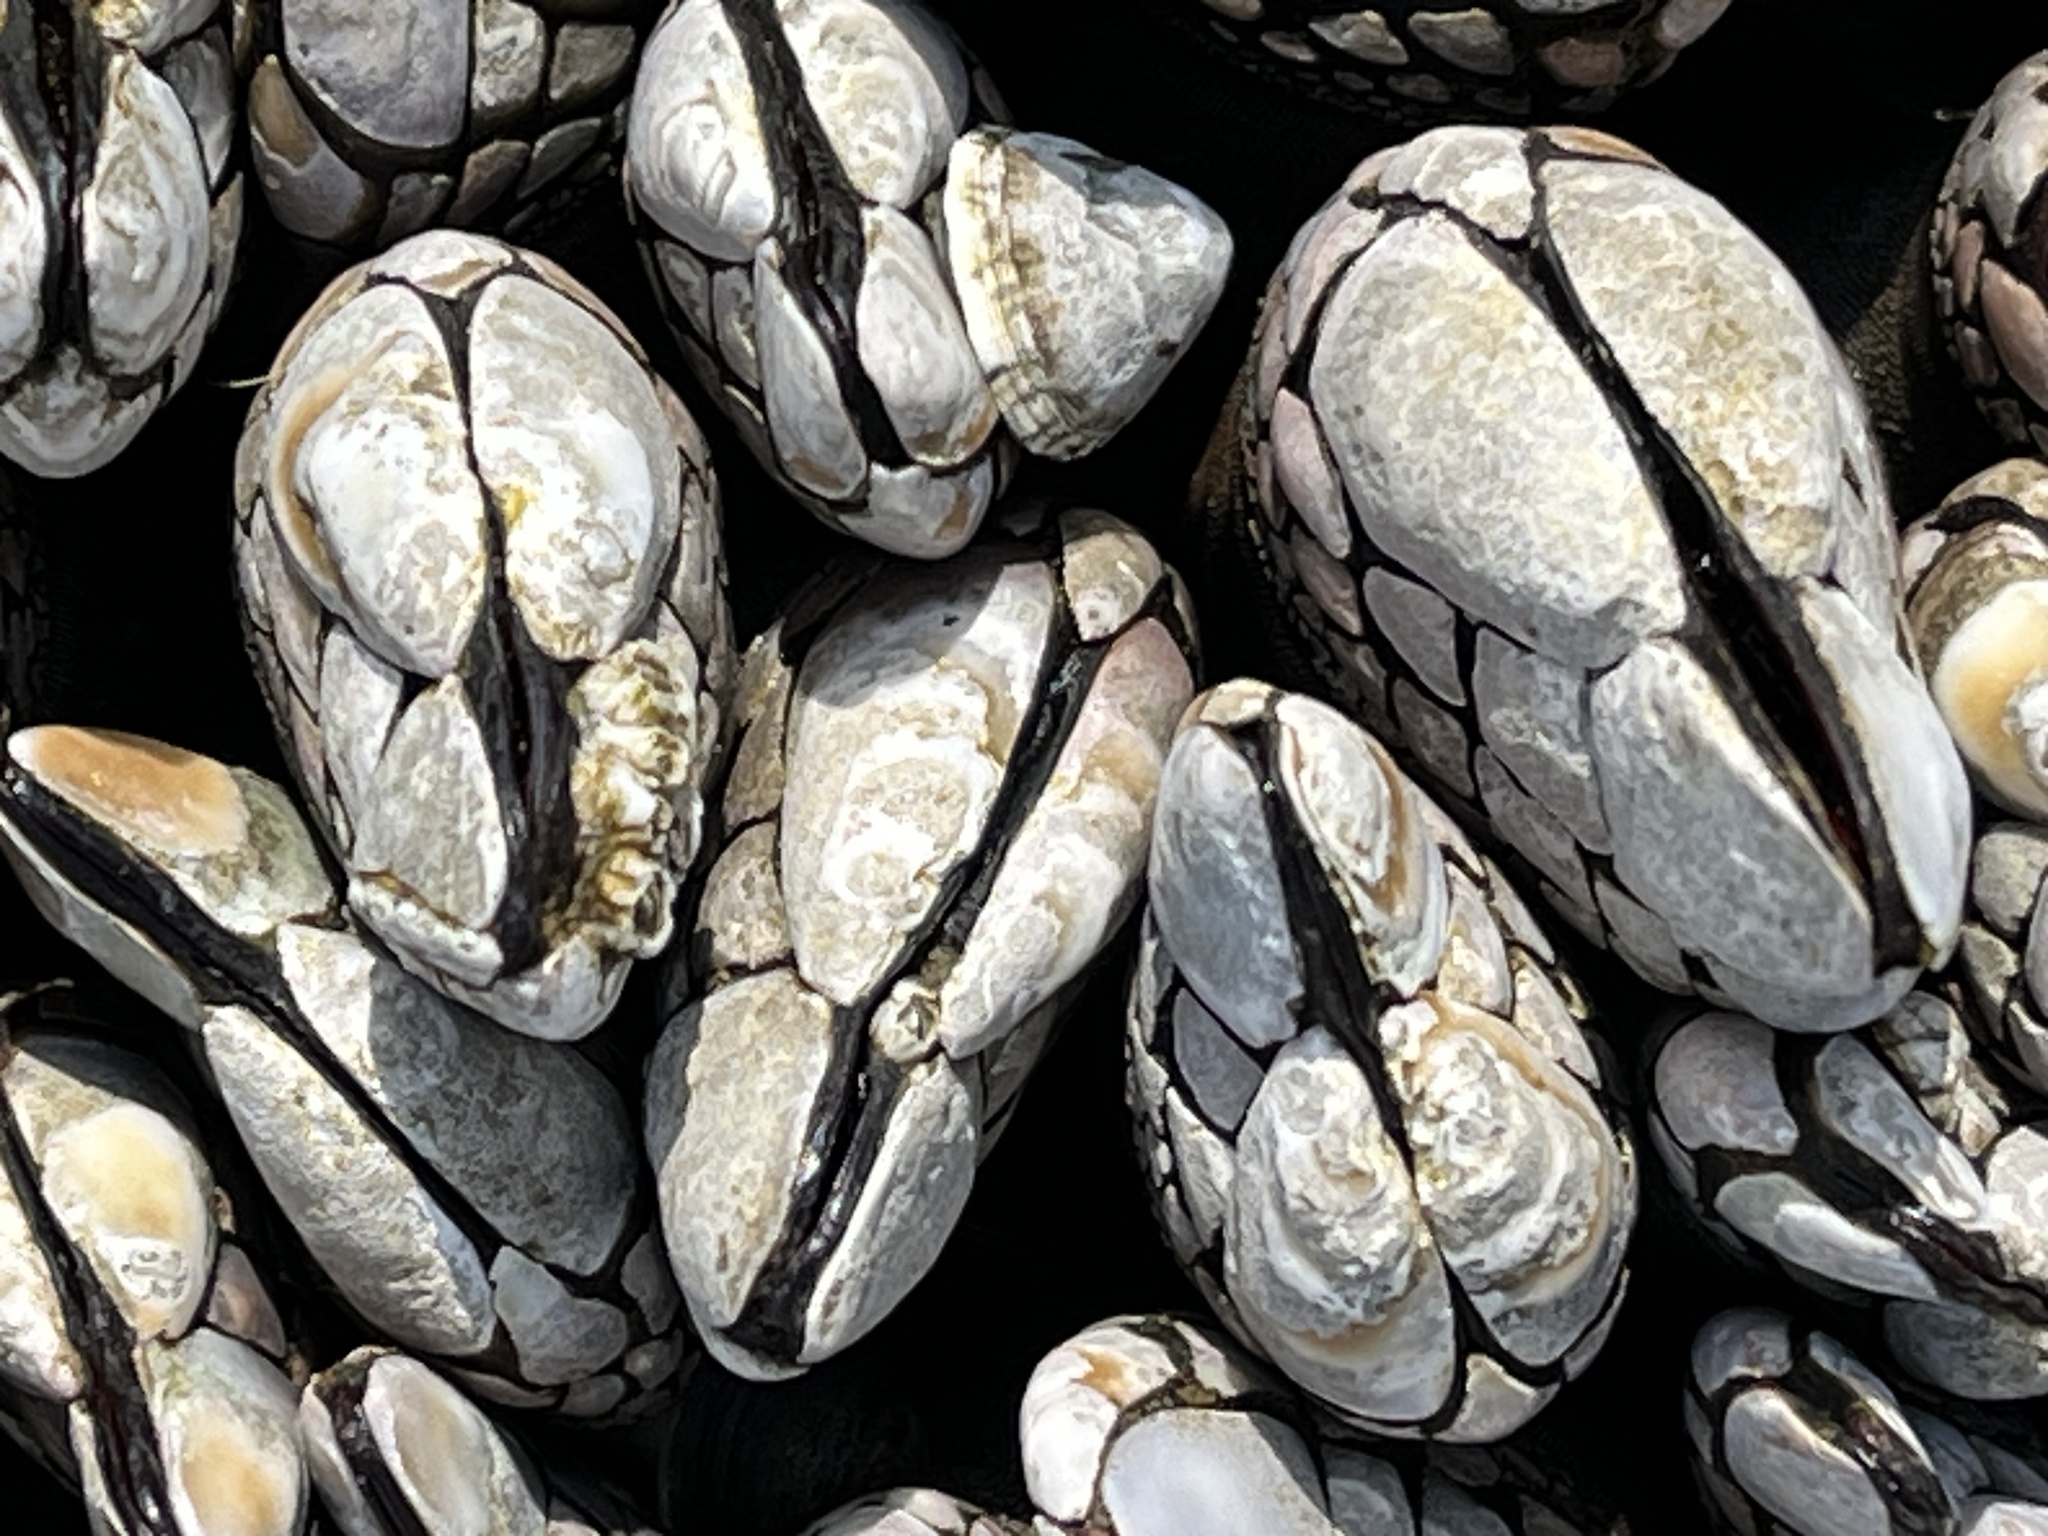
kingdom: Animalia
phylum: Arthropoda
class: Maxillopoda
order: Pedunculata
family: Pollicipedidae
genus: Pollicipes
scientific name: Pollicipes polymerus
